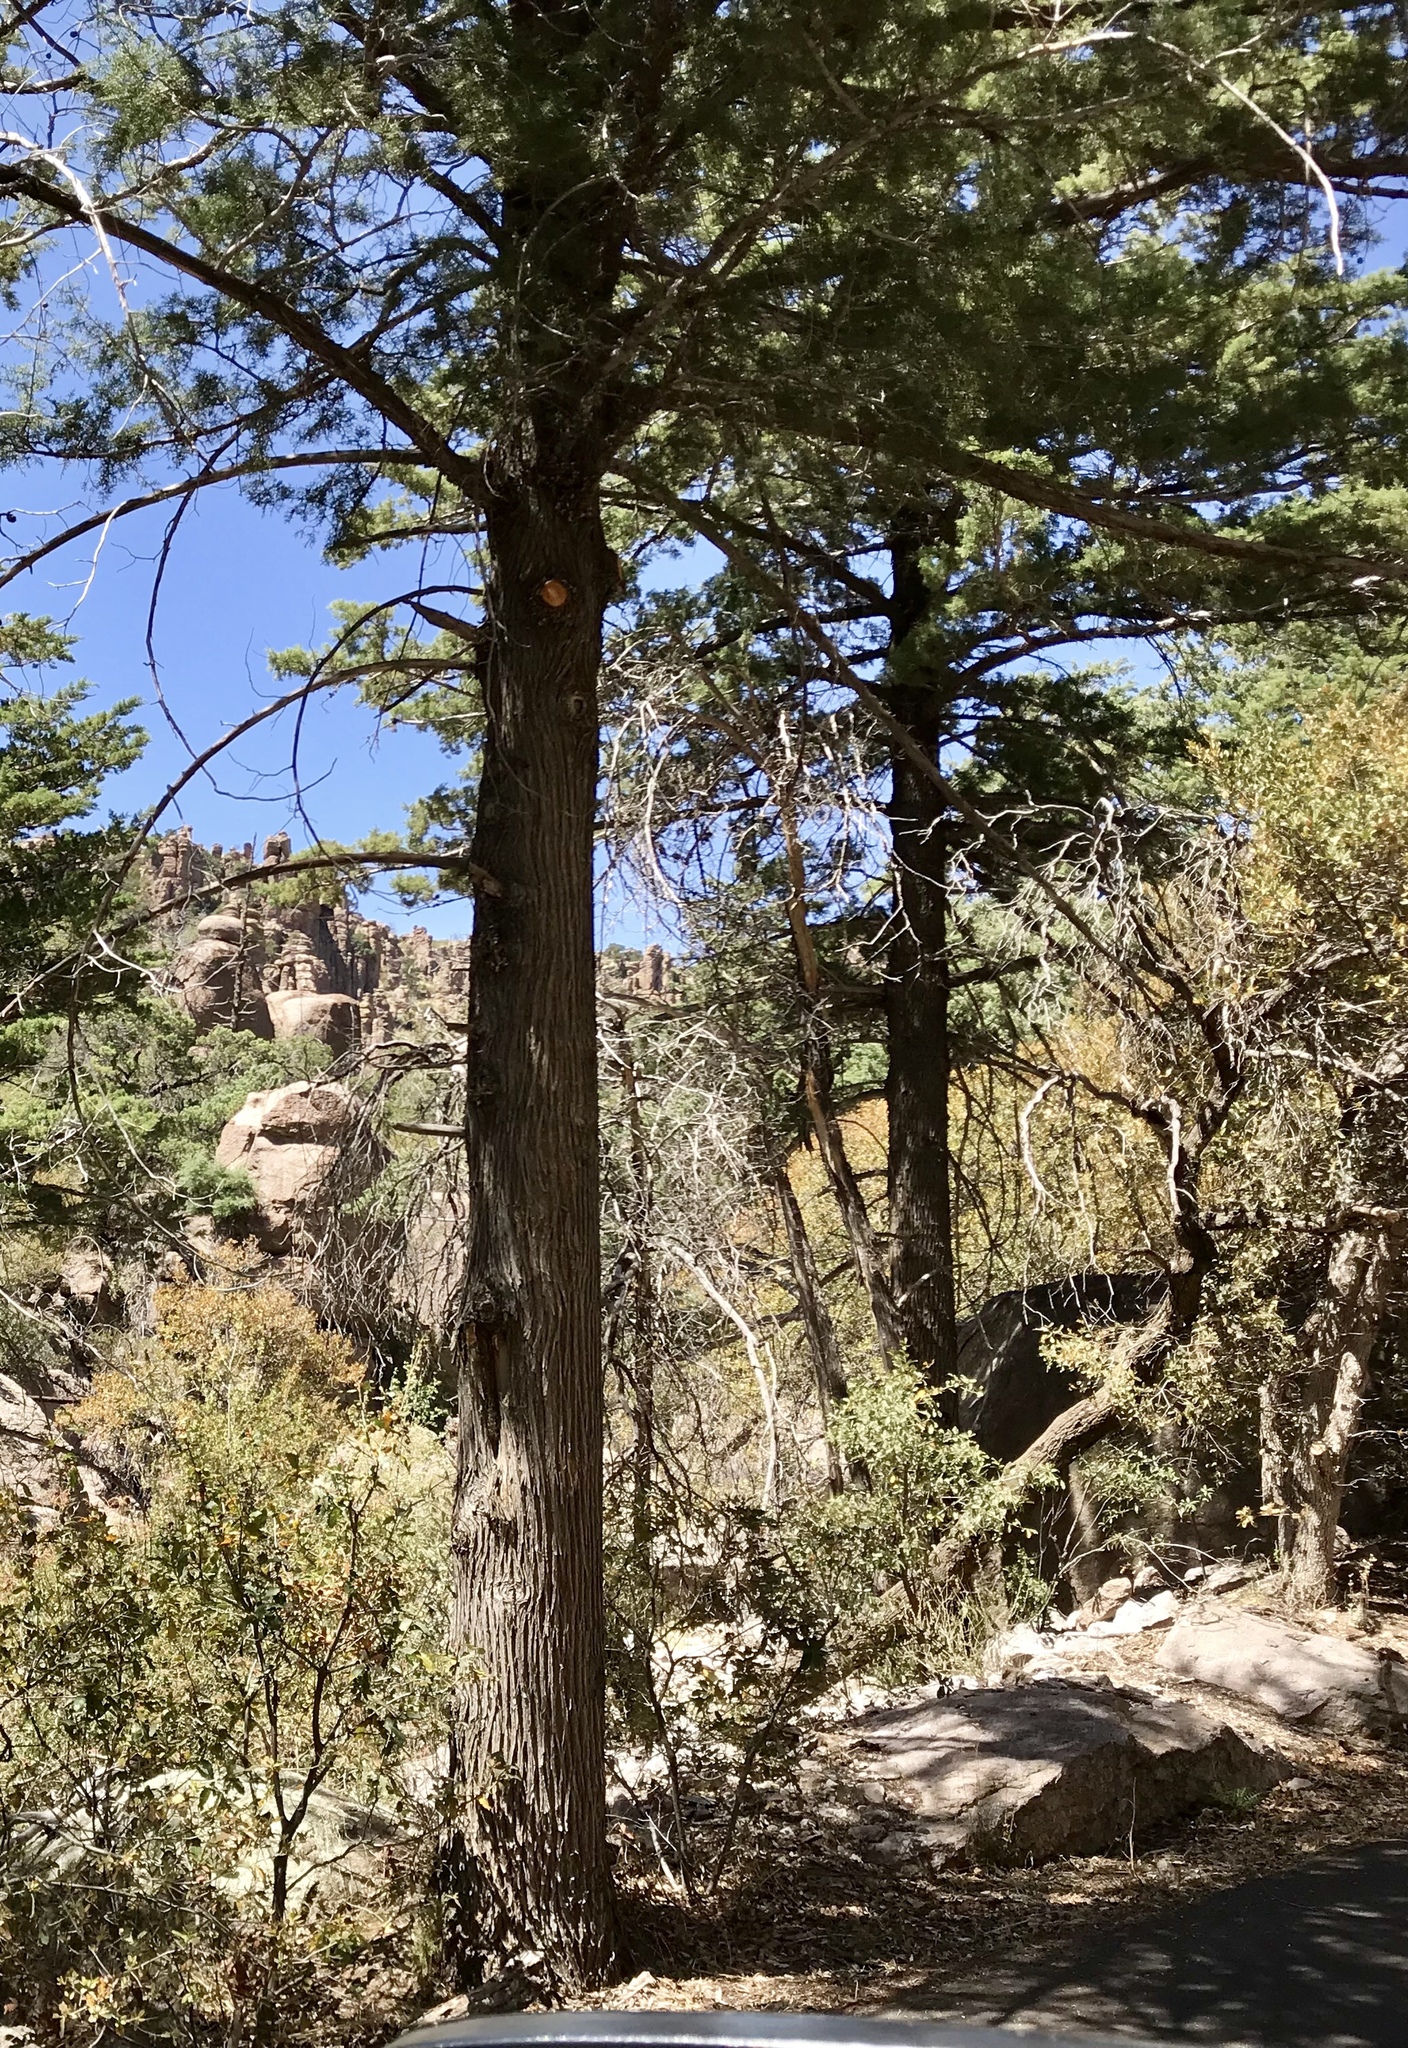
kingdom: Plantae
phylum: Tracheophyta
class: Pinopsida
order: Pinales
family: Cupressaceae
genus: Cupressus
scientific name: Cupressus arizonica
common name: Arizona cypress
